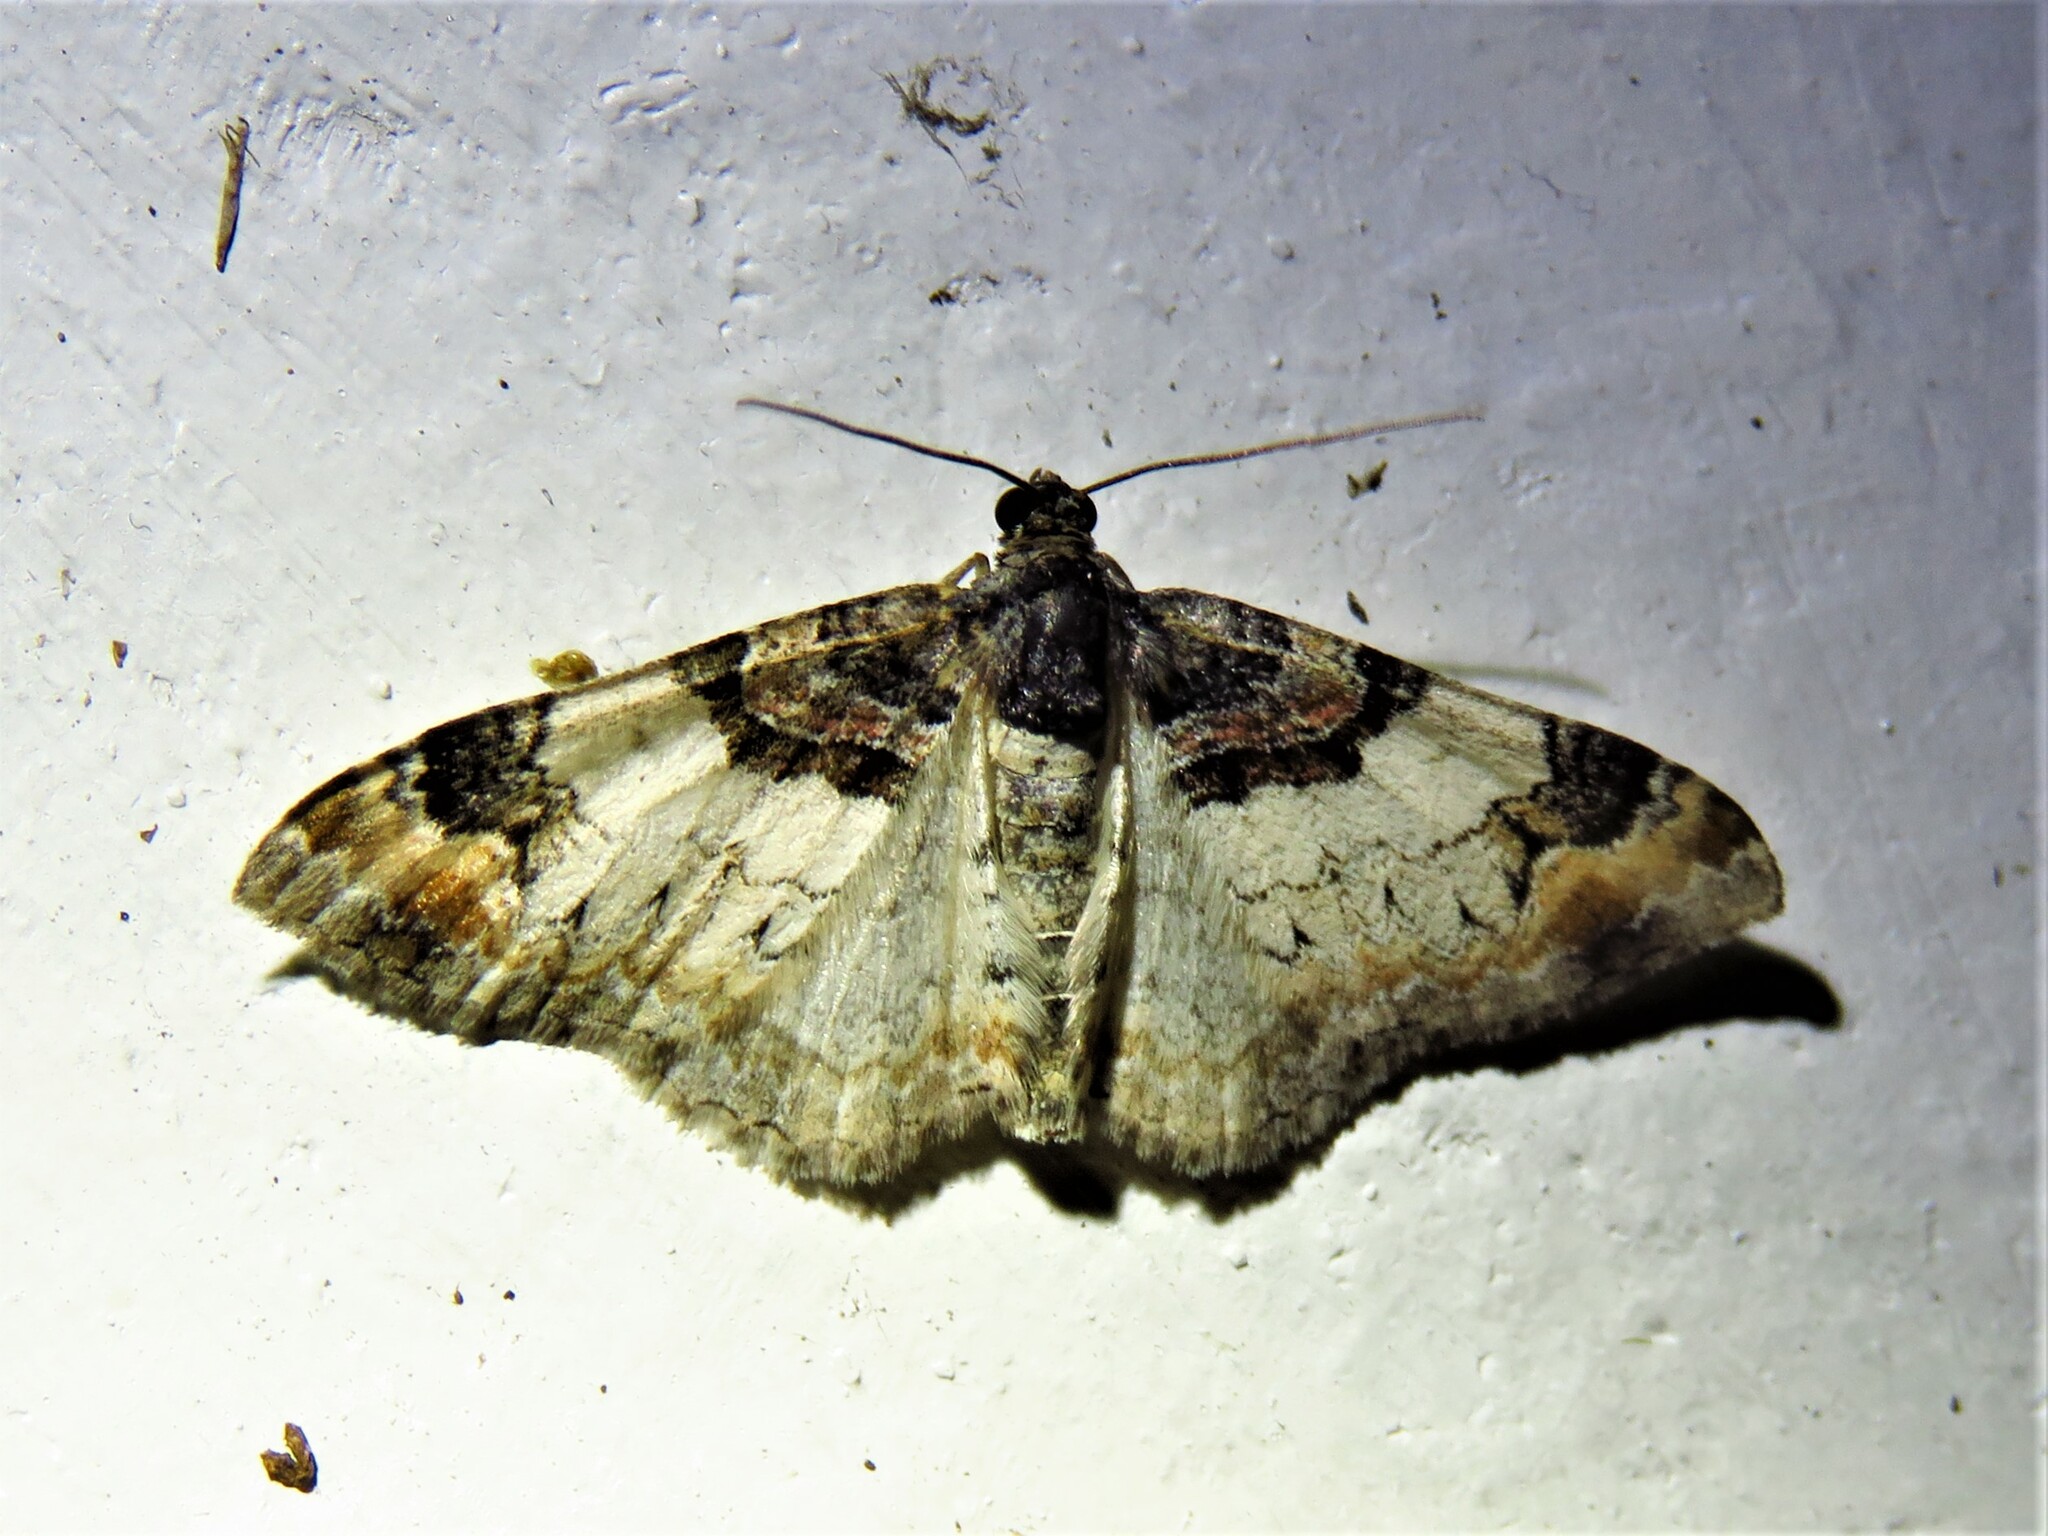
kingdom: Animalia
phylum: Arthropoda
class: Insecta
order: Lepidoptera
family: Geometridae
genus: Catarhoe
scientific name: Catarhoe cuculata
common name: Royal mantle
